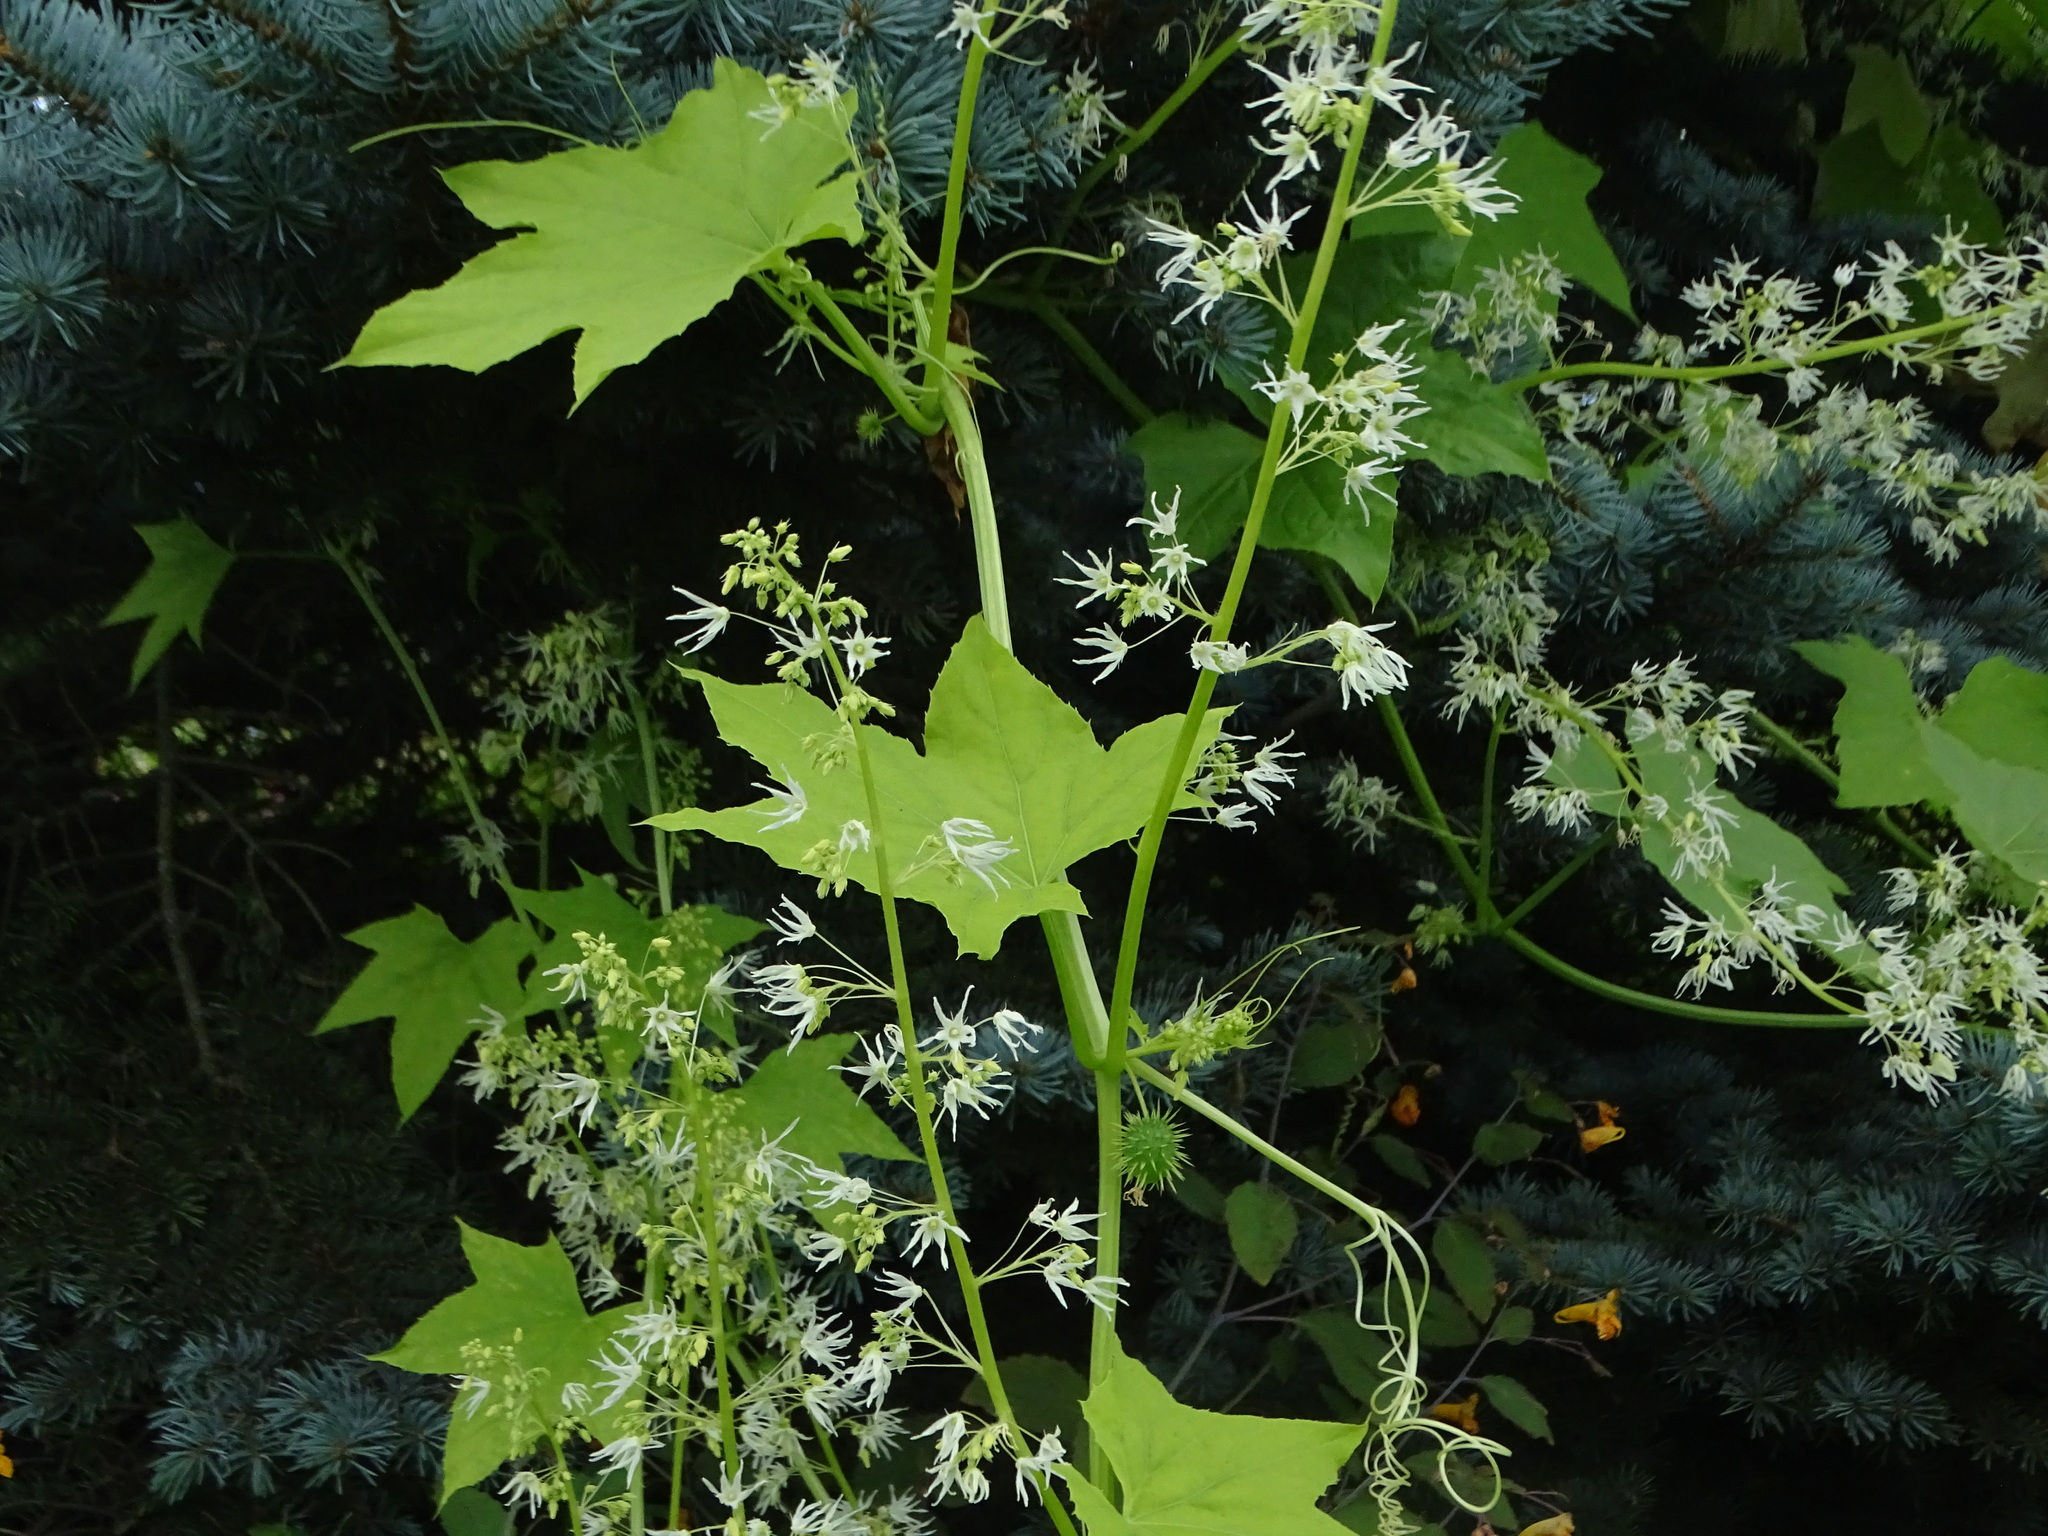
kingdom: Plantae
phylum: Tracheophyta
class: Magnoliopsida
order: Cucurbitales
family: Cucurbitaceae
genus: Echinocystis
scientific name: Echinocystis lobata
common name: Wild cucumber
